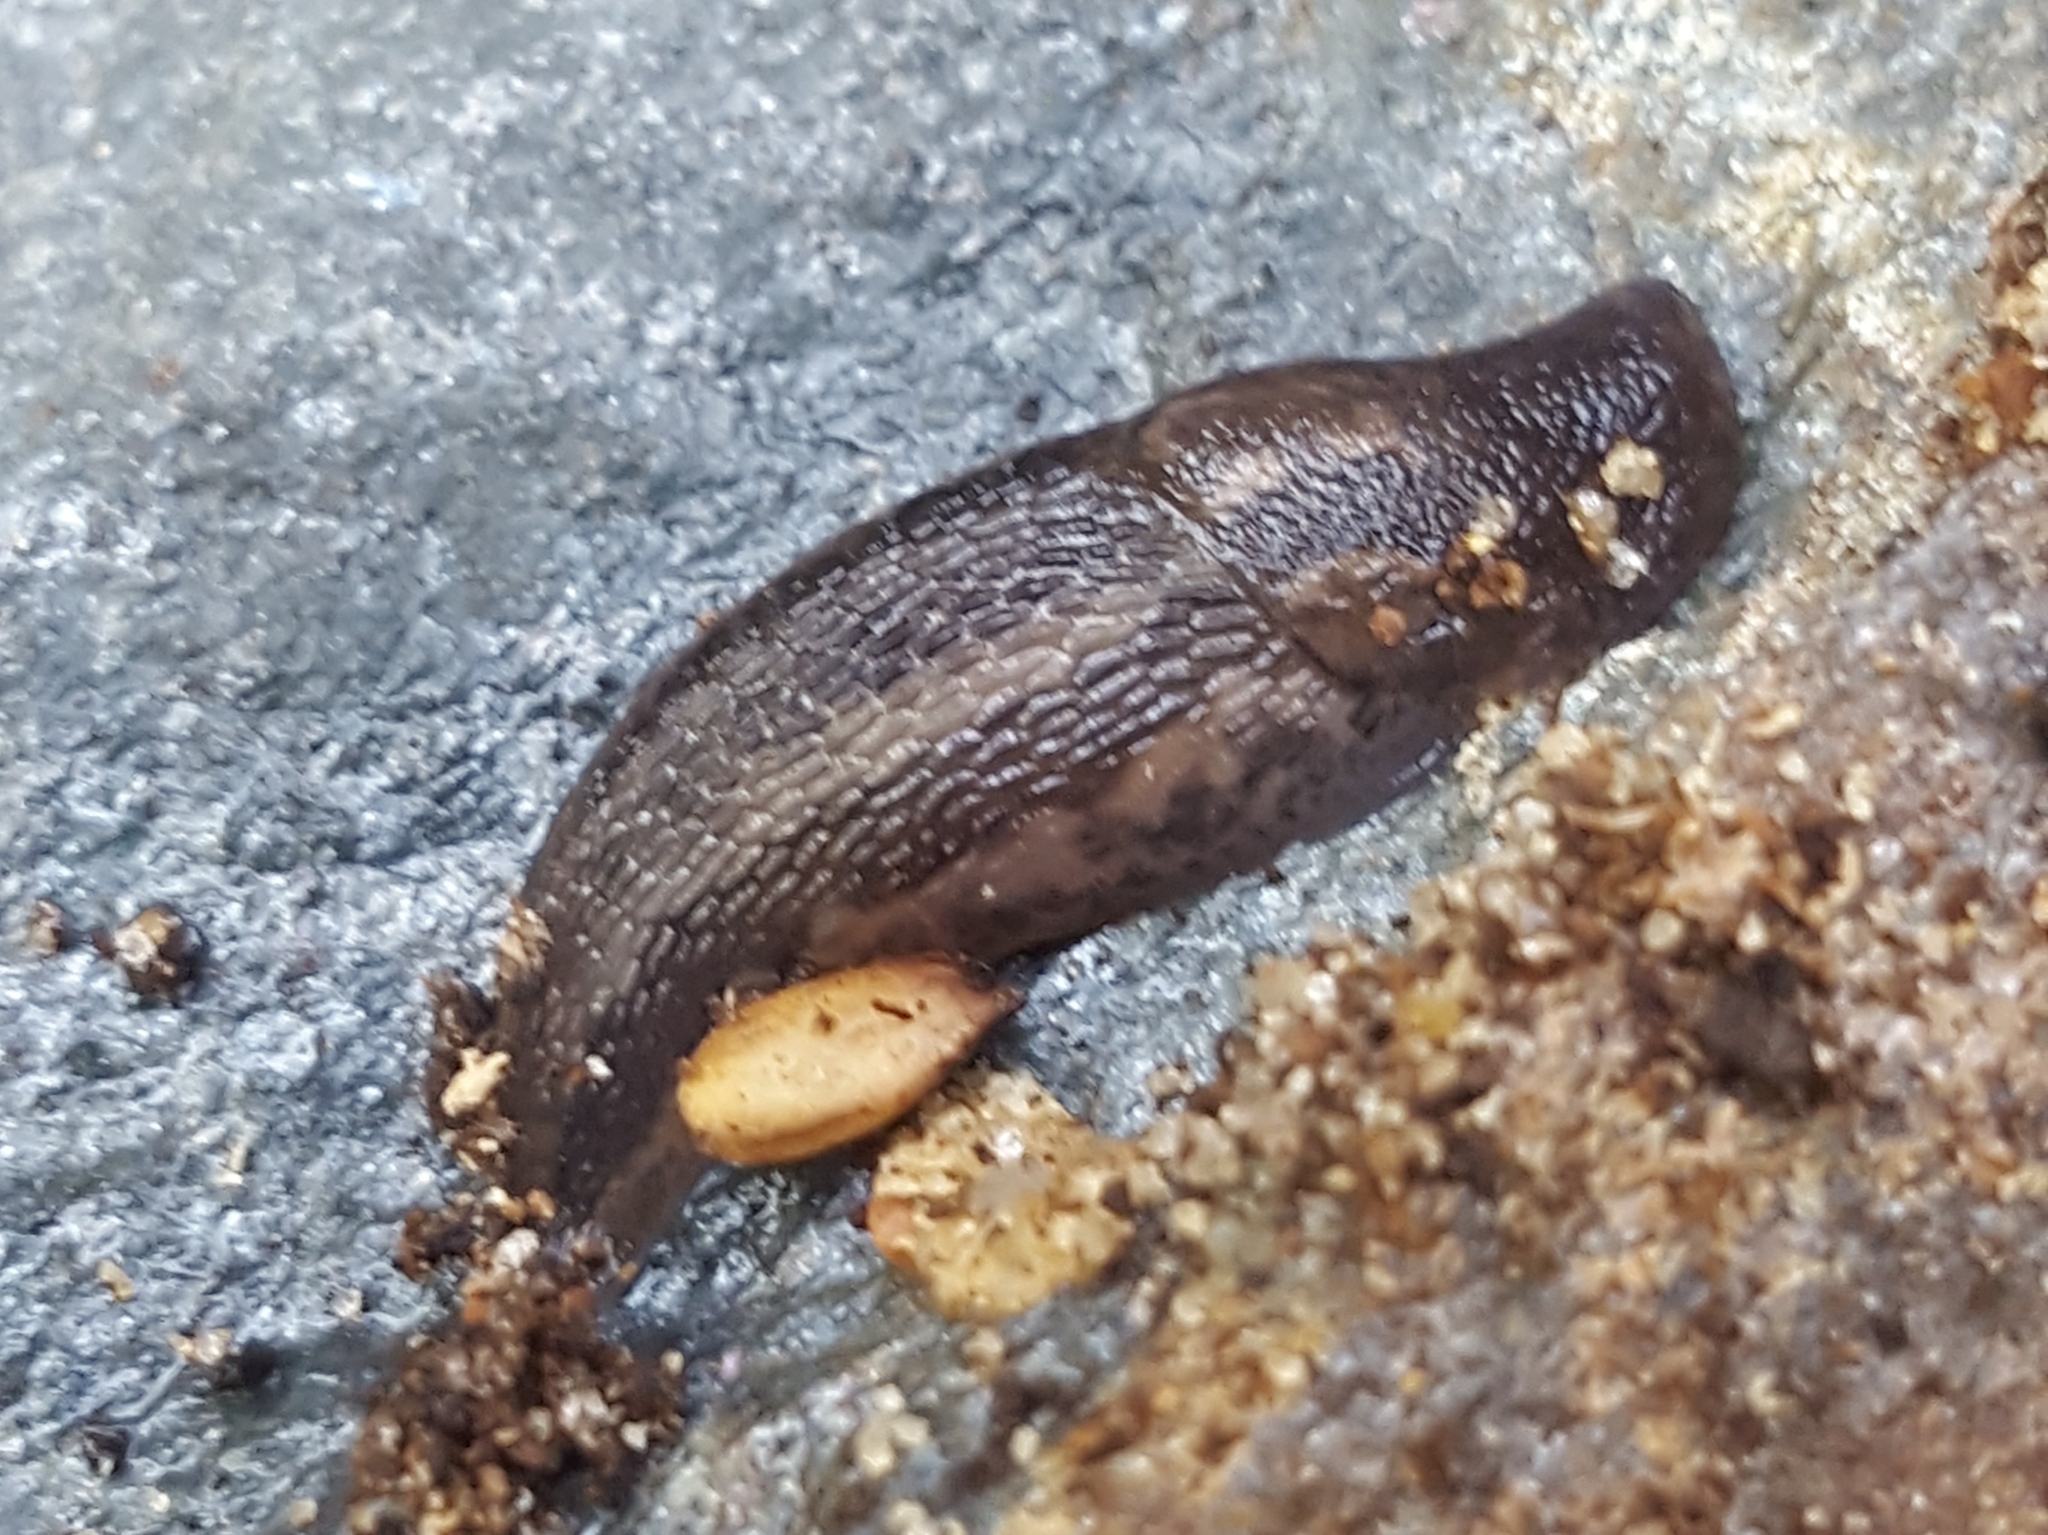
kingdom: Animalia
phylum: Mollusca
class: Gastropoda
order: Stylommatophora
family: Limacidae
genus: Limax
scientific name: Limax maximus
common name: Great grey slug
